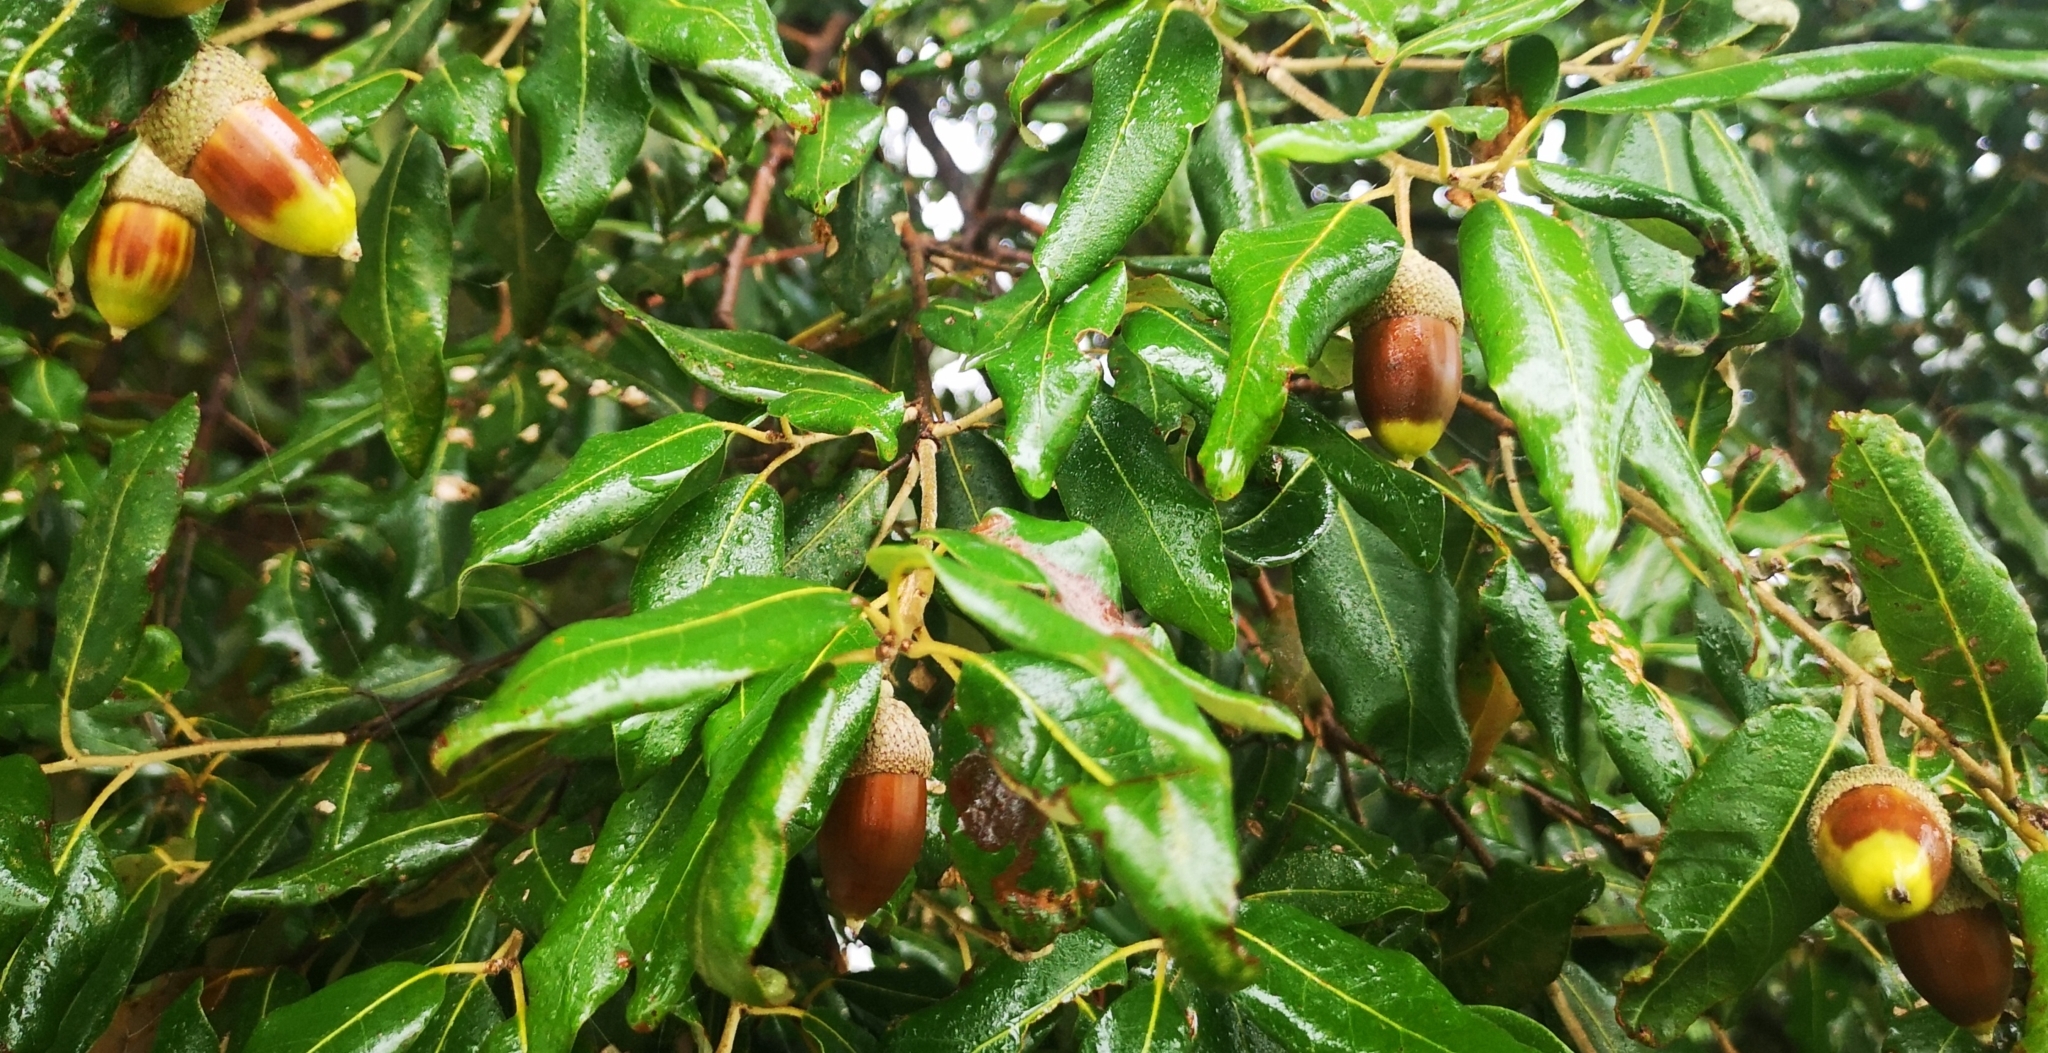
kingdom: Plantae
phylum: Tracheophyta
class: Magnoliopsida
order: Fagales
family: Fagaceae
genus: Quercus
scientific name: Quercus ilex
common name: Evergreen oak
